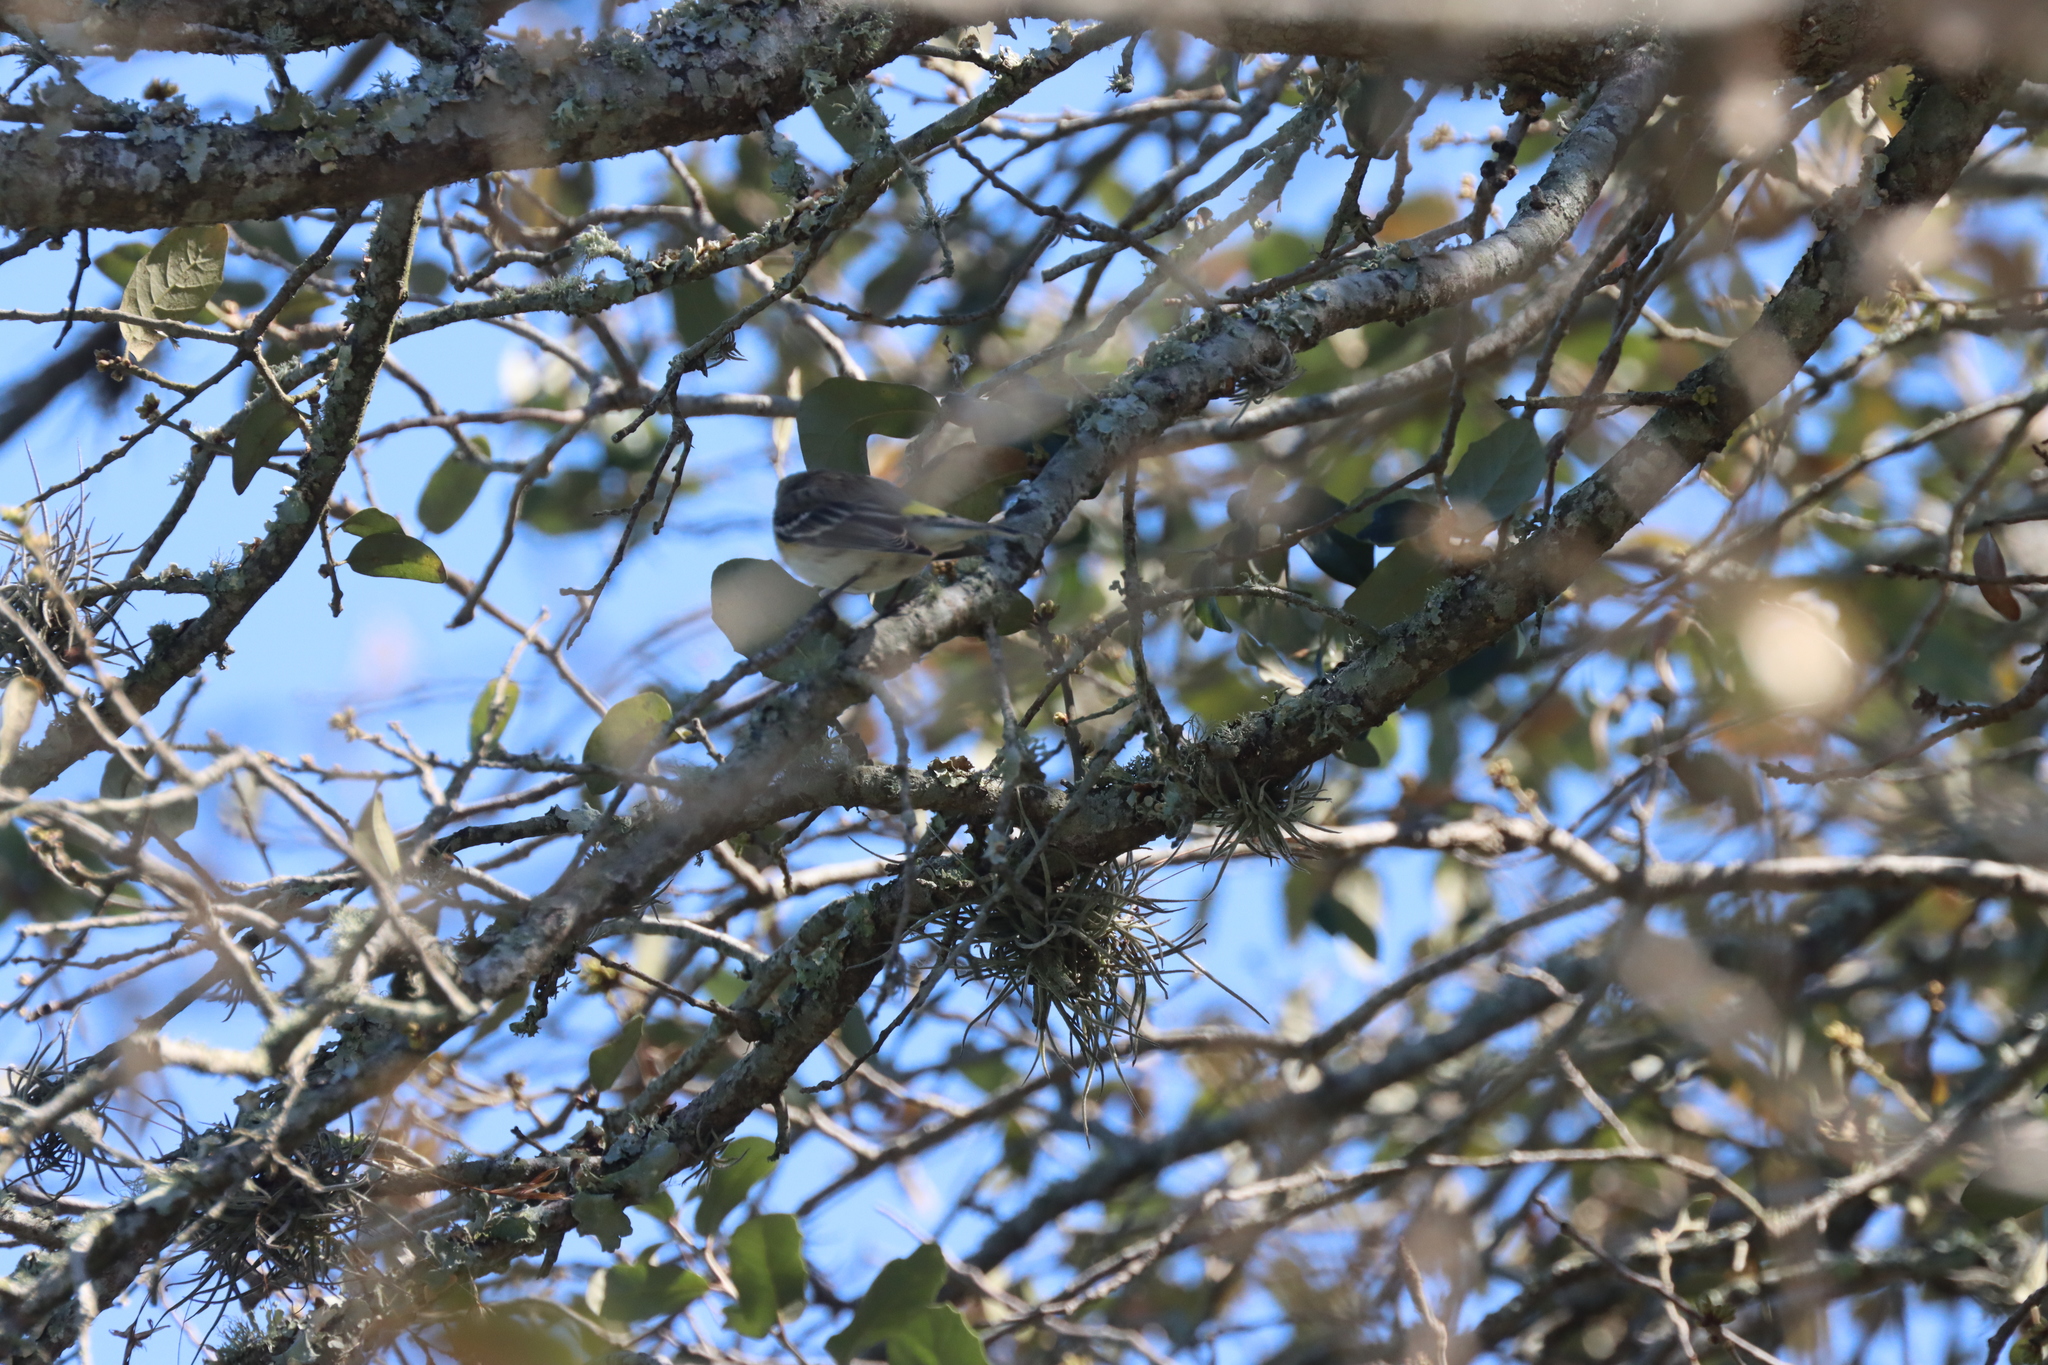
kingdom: Animalia
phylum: Chordata
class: Aves
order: Passeriformes
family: Parulidae
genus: Setophaga
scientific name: Setophaga coronata
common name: Myrtle warbler
